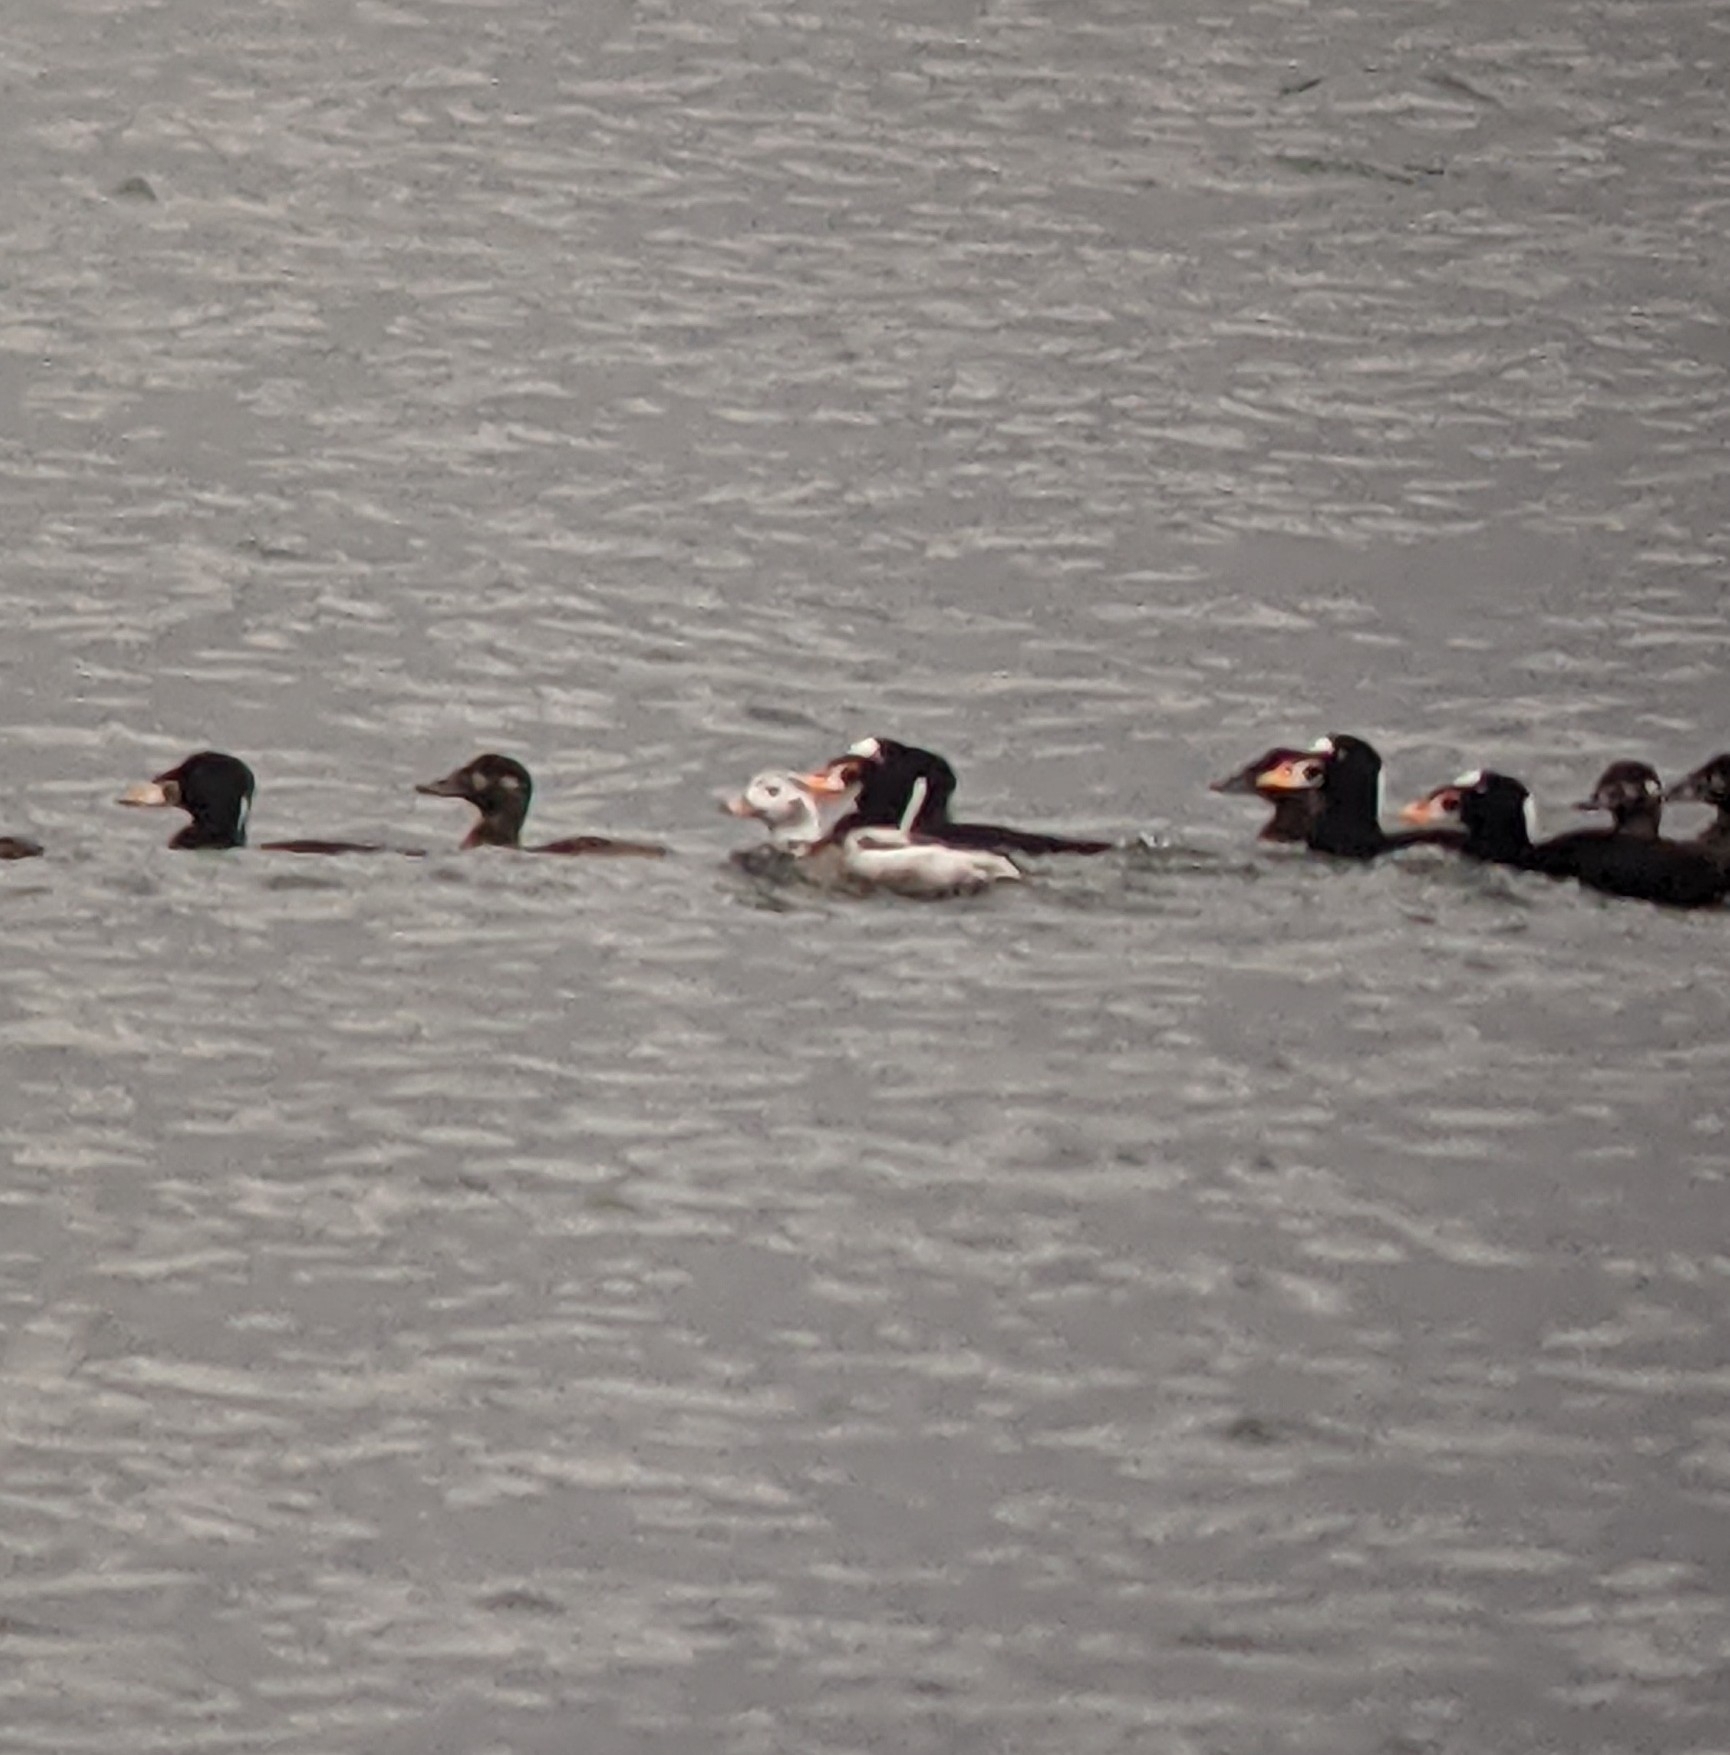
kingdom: Animalia
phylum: Chordata
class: Aves
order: Anseriformes
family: Anatidae
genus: Clangula
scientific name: Clangula hyemalis
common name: Long-tailed duck
